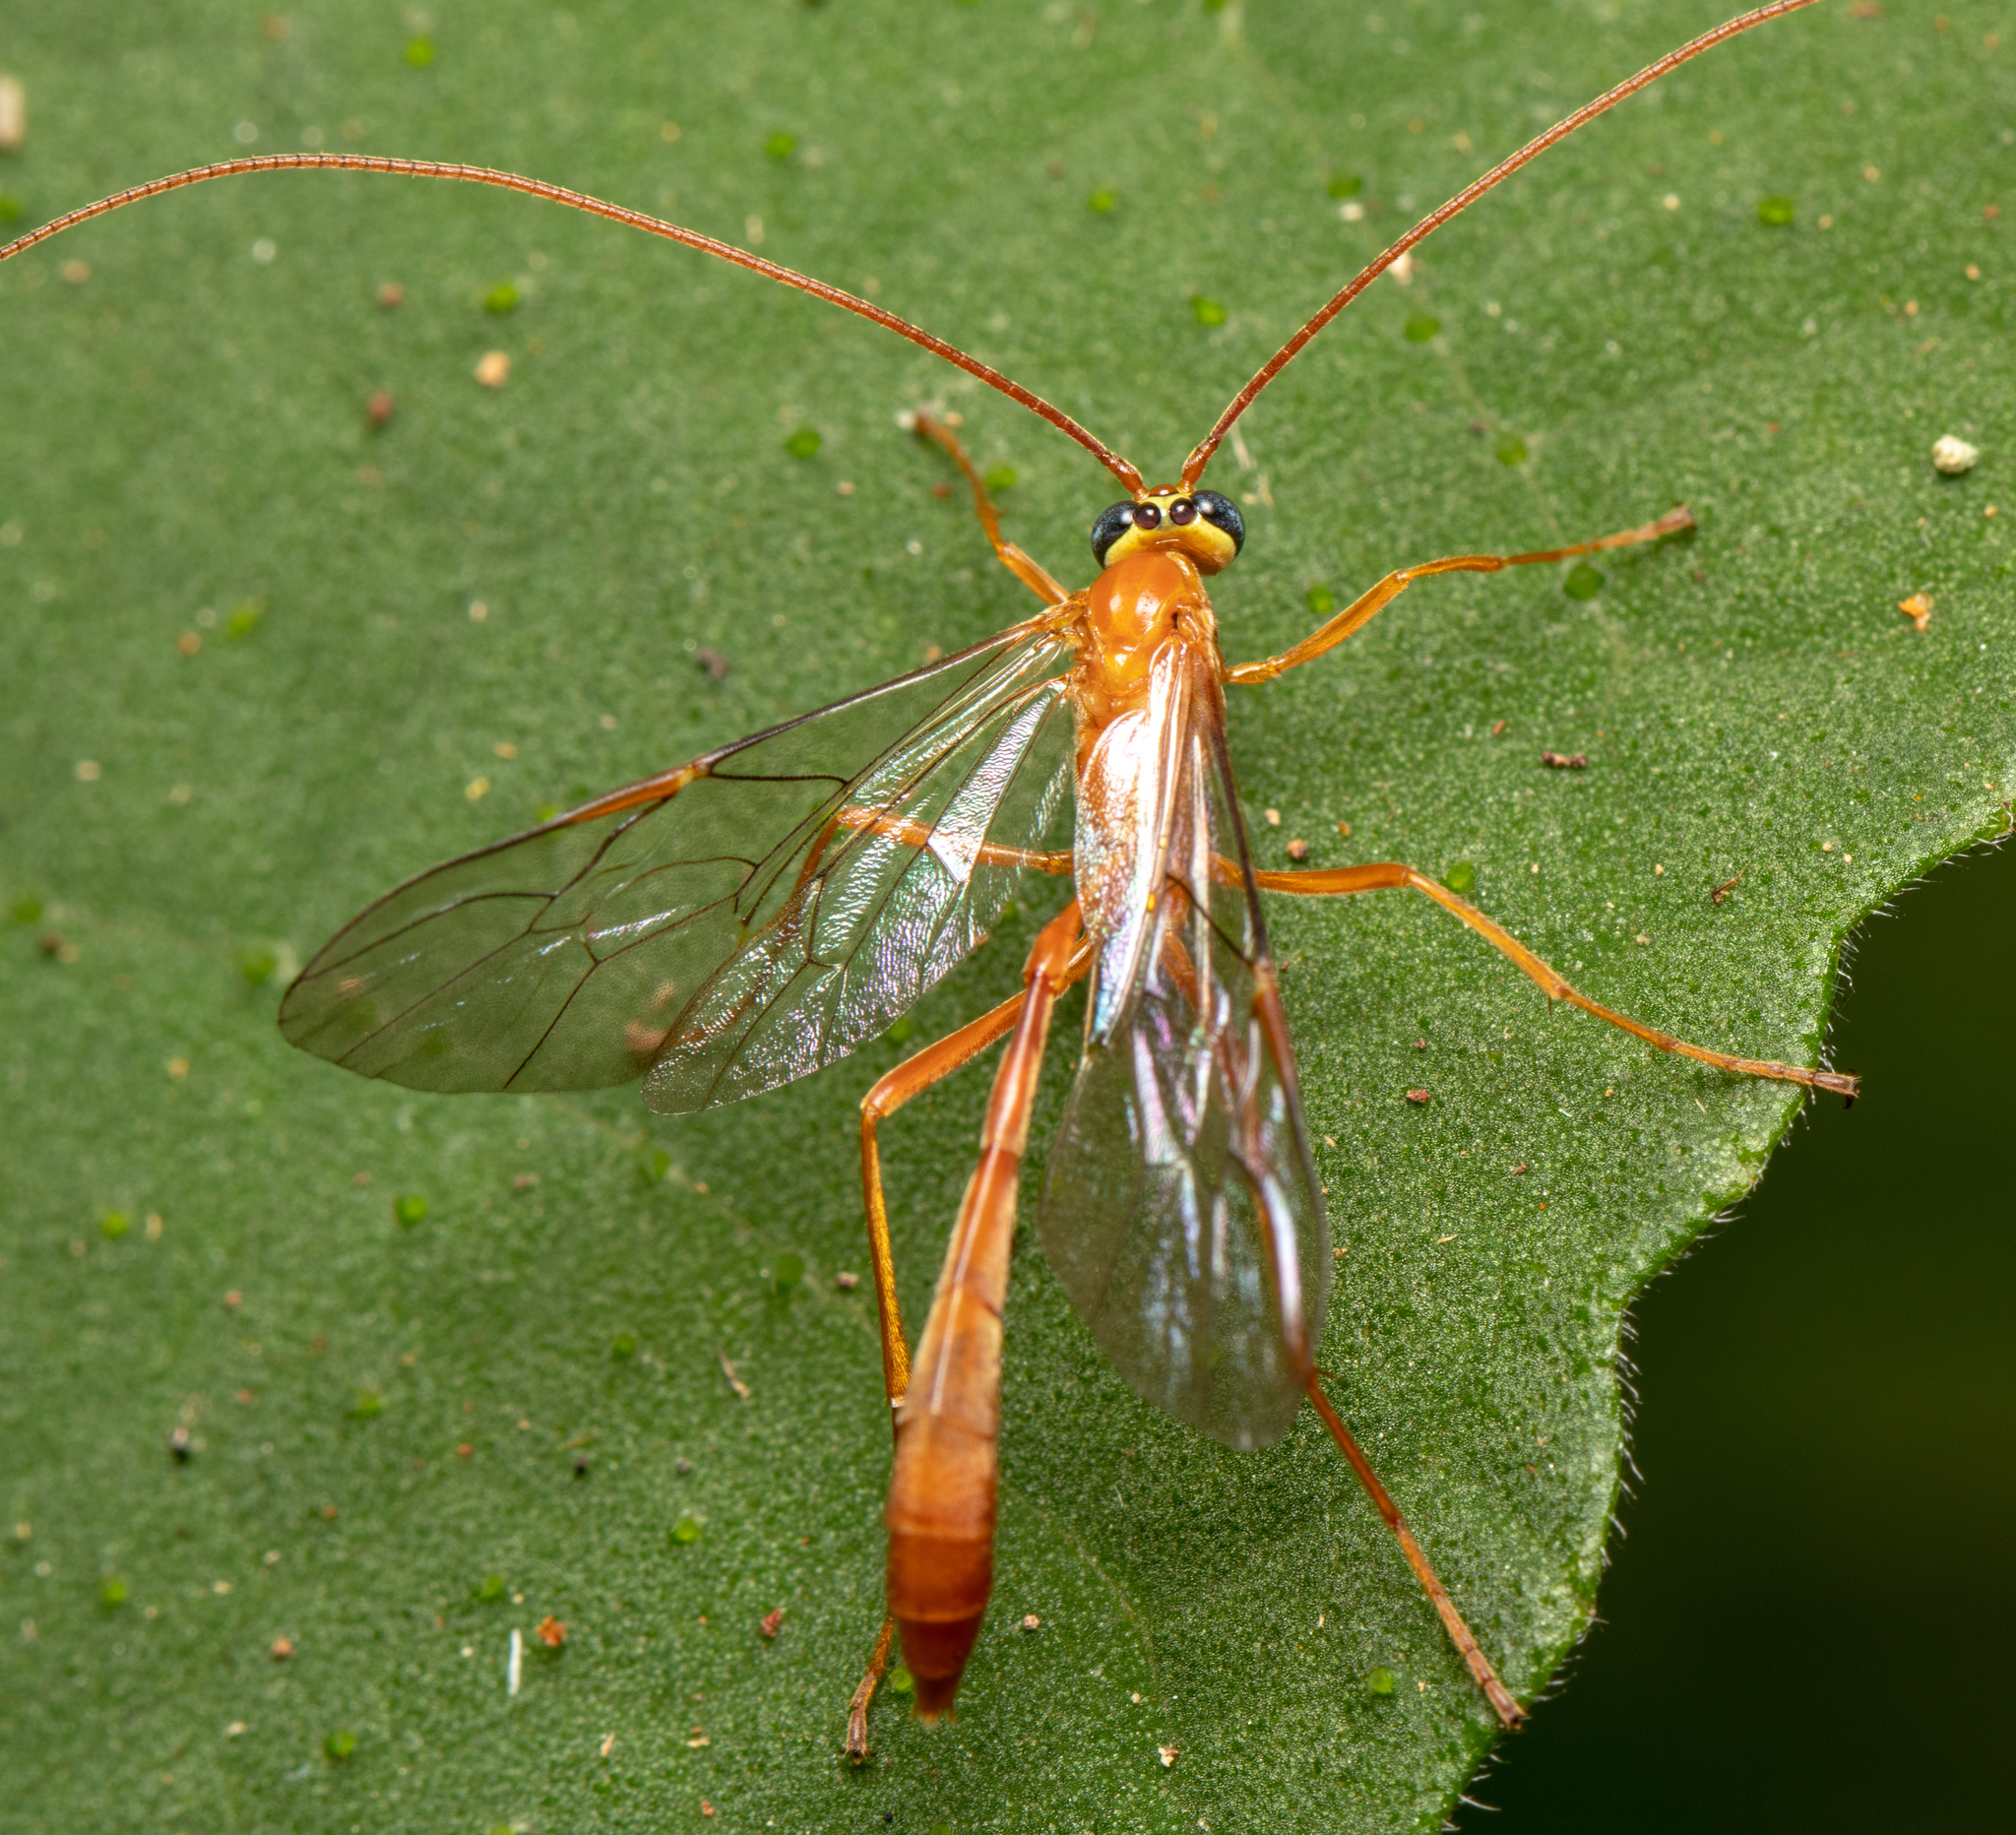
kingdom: Animalia
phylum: Arthropoda
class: Insecta
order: Hymenoptera
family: Ichneumonidae
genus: Enicospilus
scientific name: Enicospilus lineolatus
